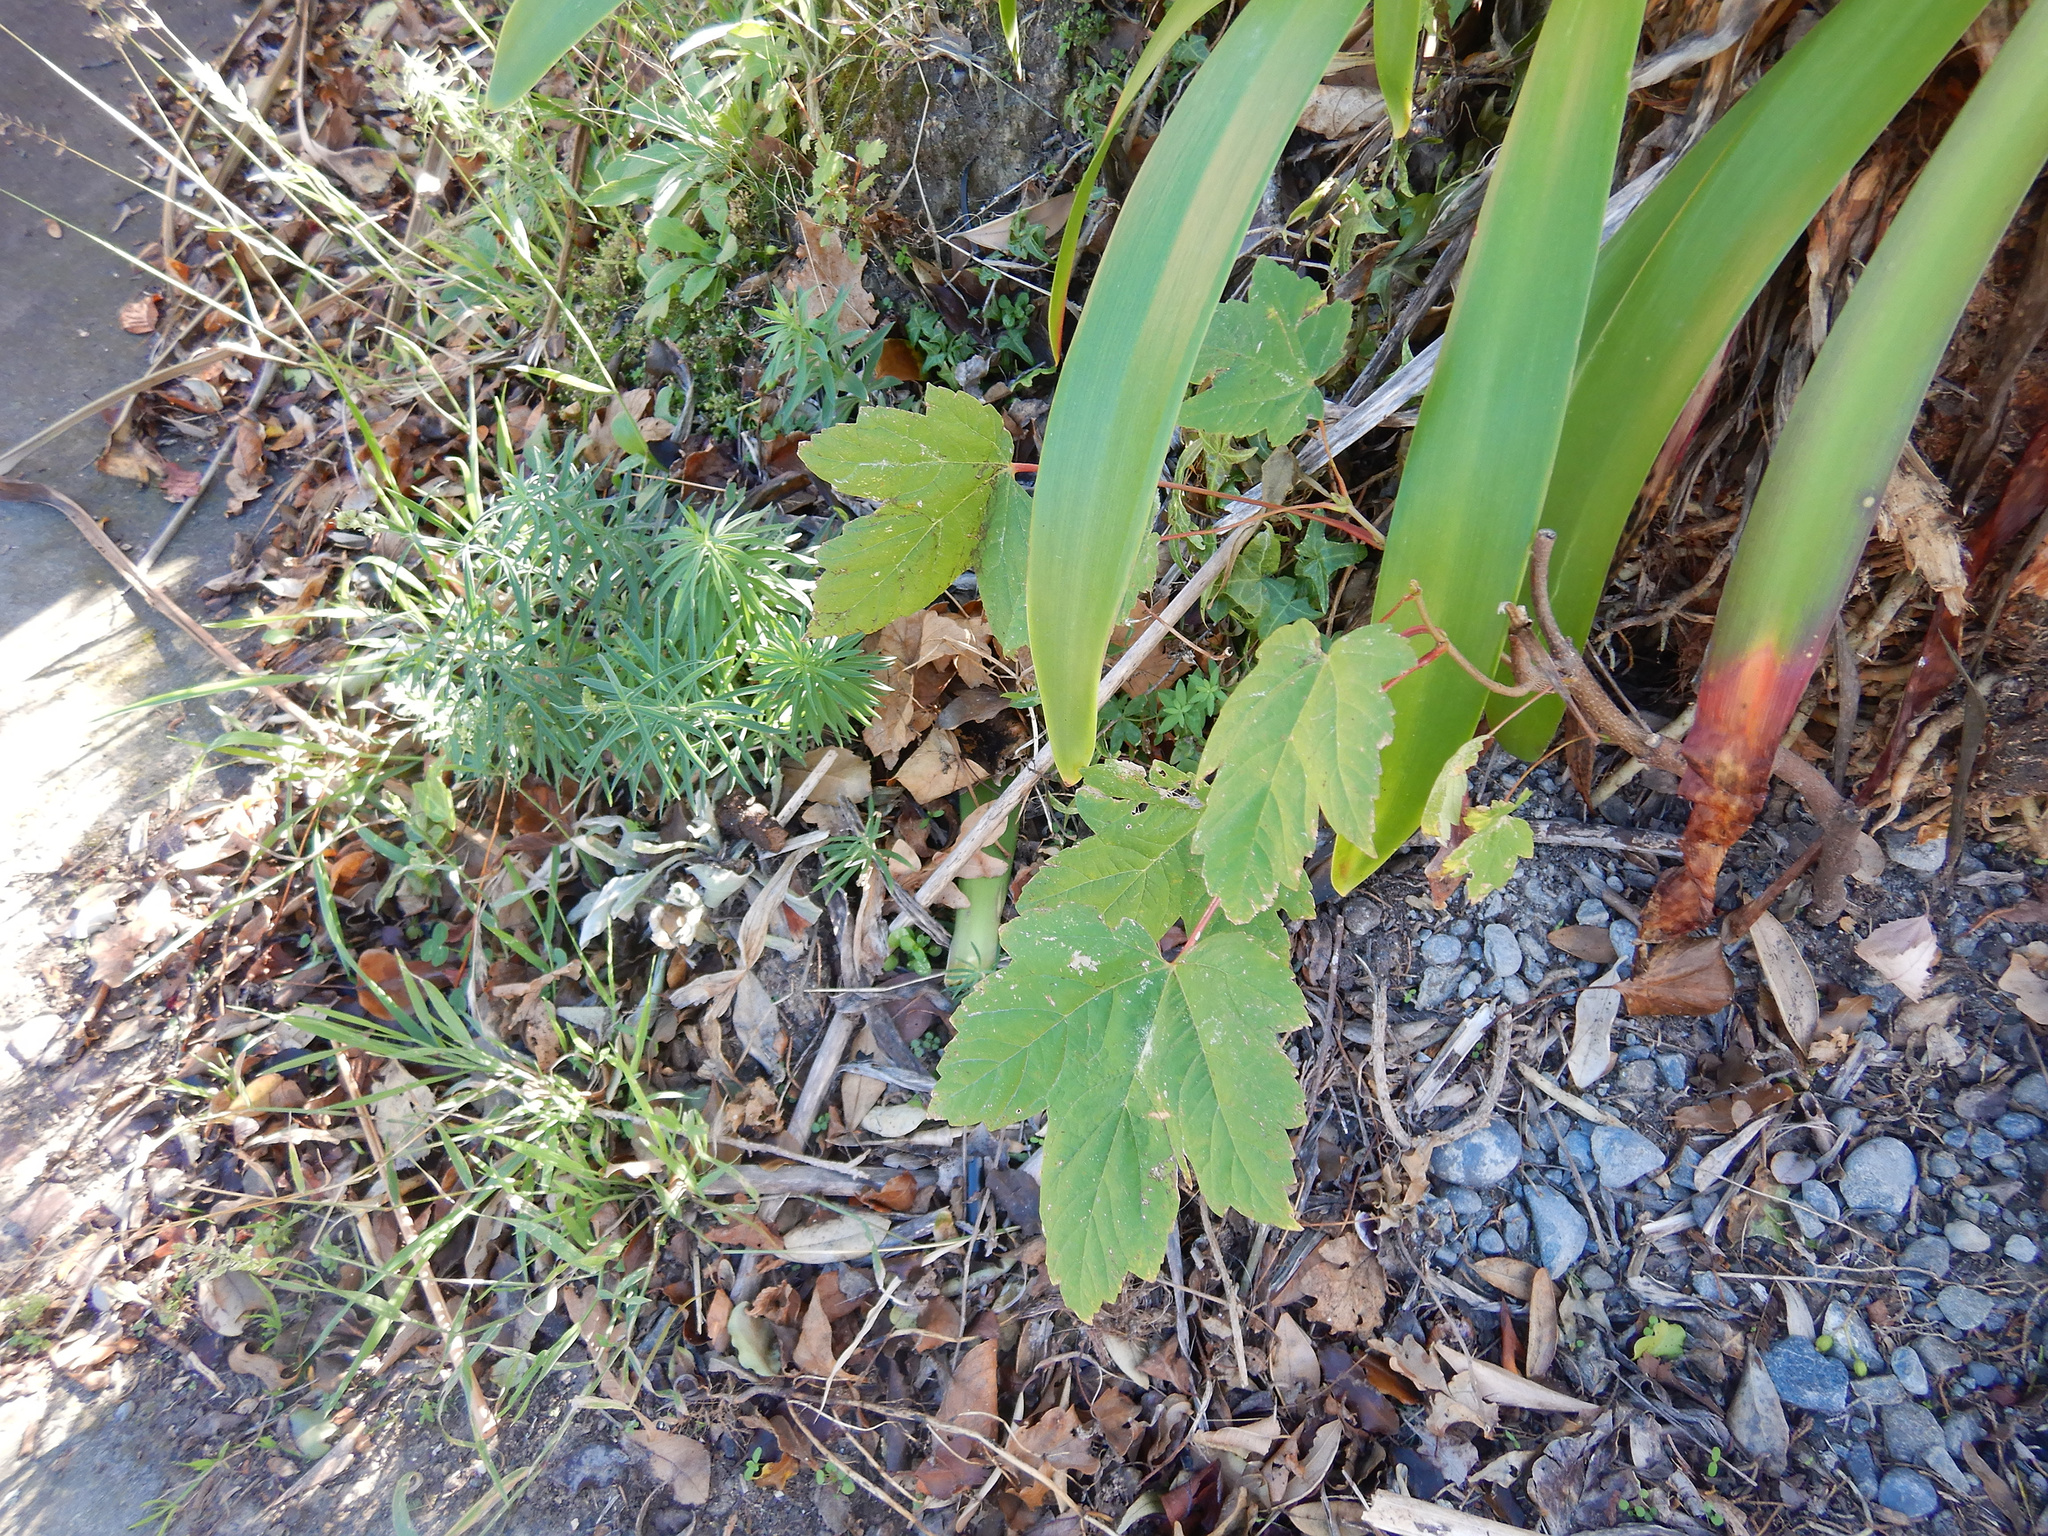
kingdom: Plantae
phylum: Tracheophyta
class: Magnoliopsida
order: Sapindales
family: Sapindaceae
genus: Acer
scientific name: Acer pseudoplatanus
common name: Sycamore
